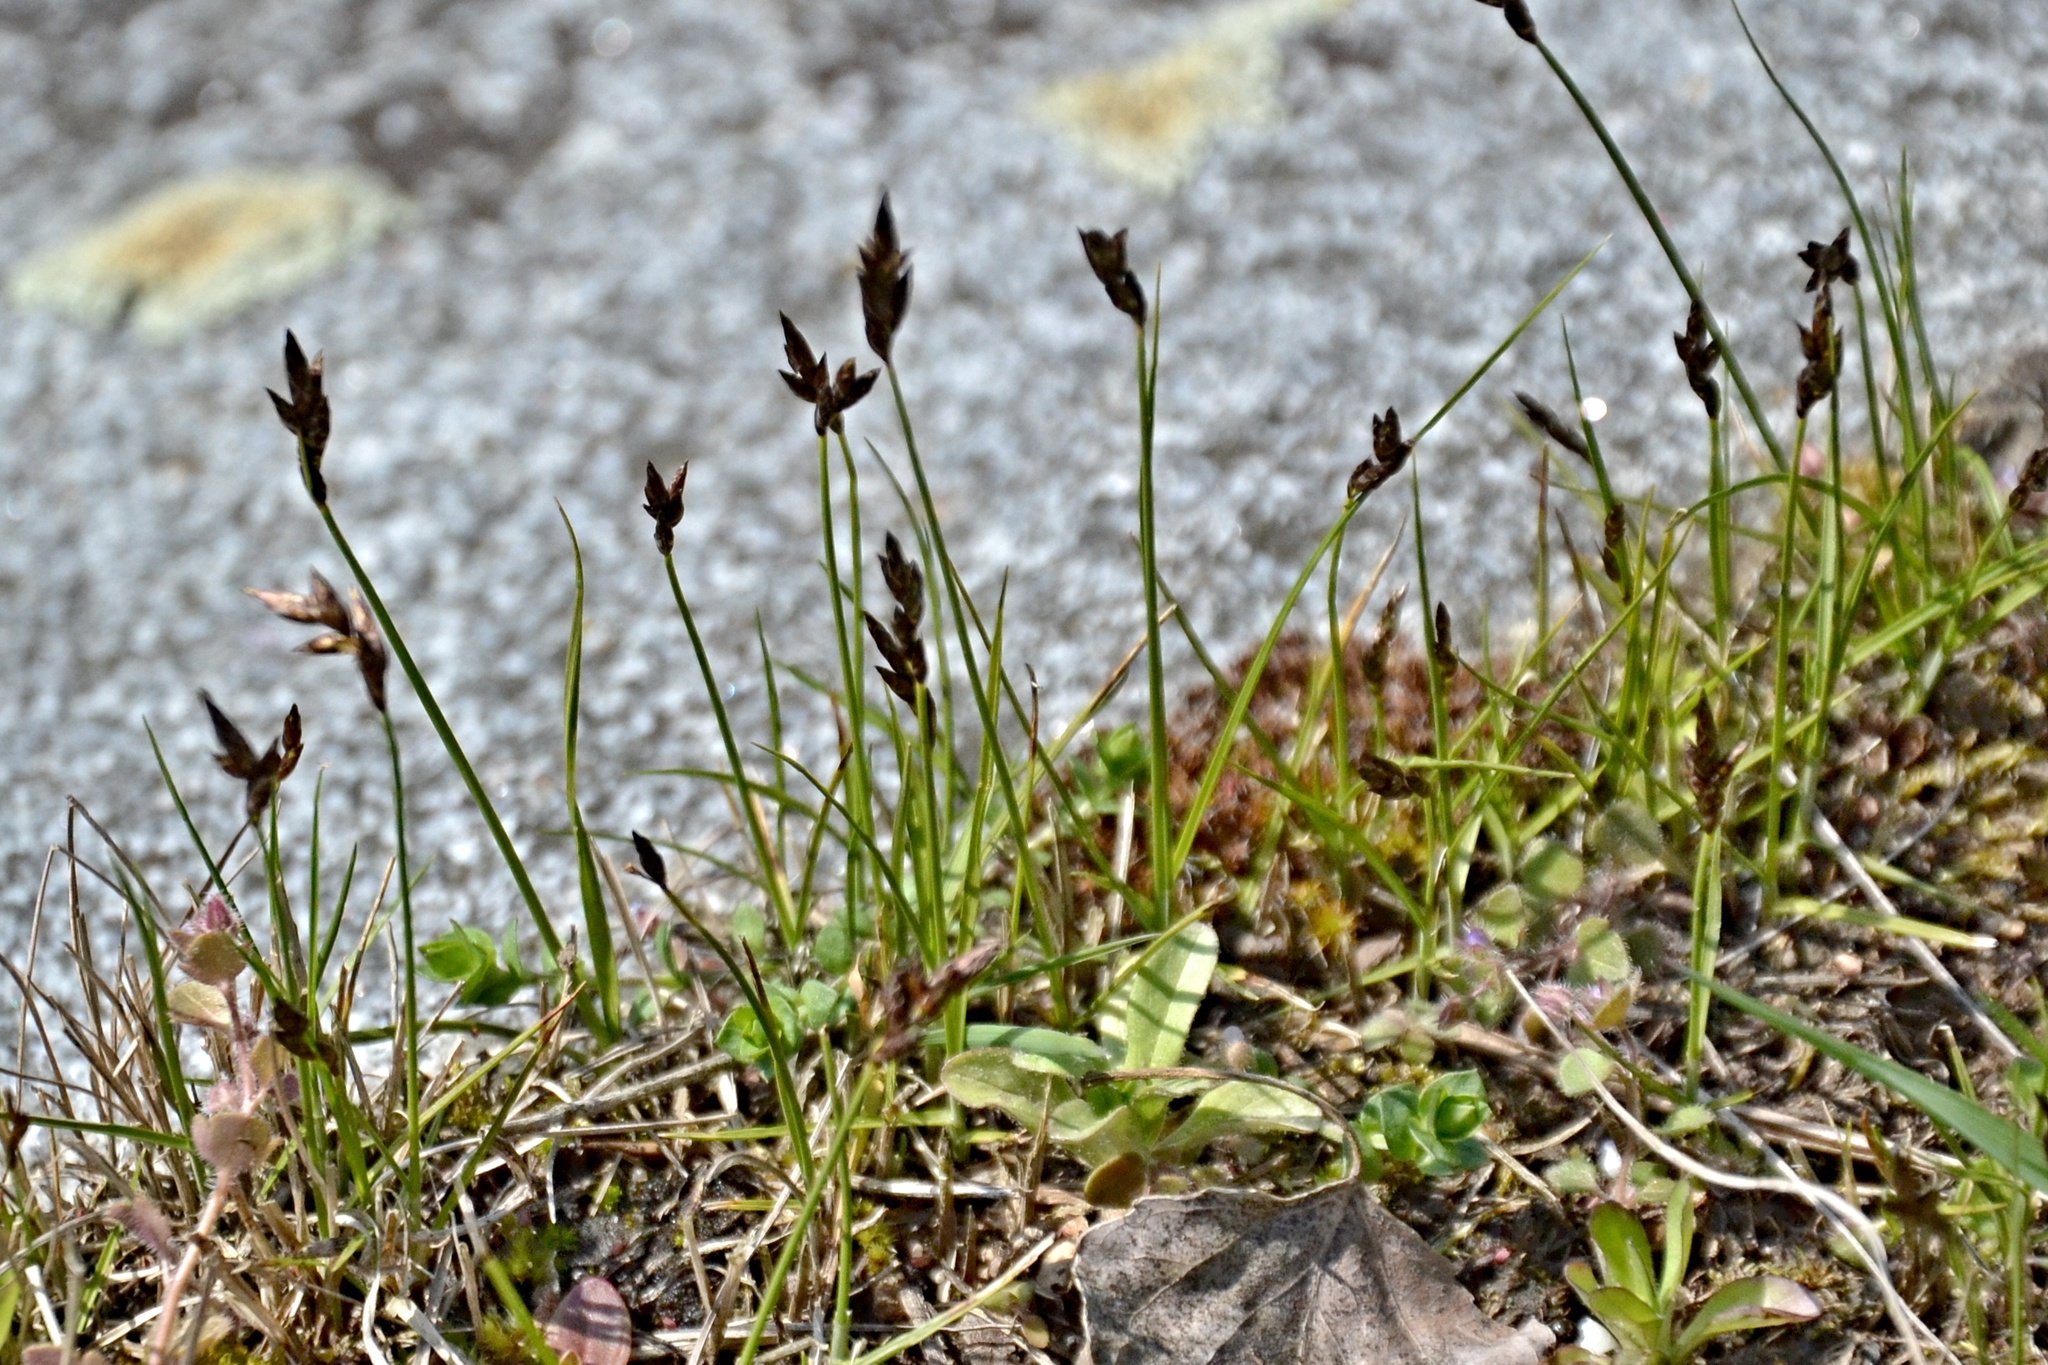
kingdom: Plantae
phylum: Tracheophyta
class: Liliopsida
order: Poales
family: Cyperaceae
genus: Carex
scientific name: Carex praecox
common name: Early sedge
